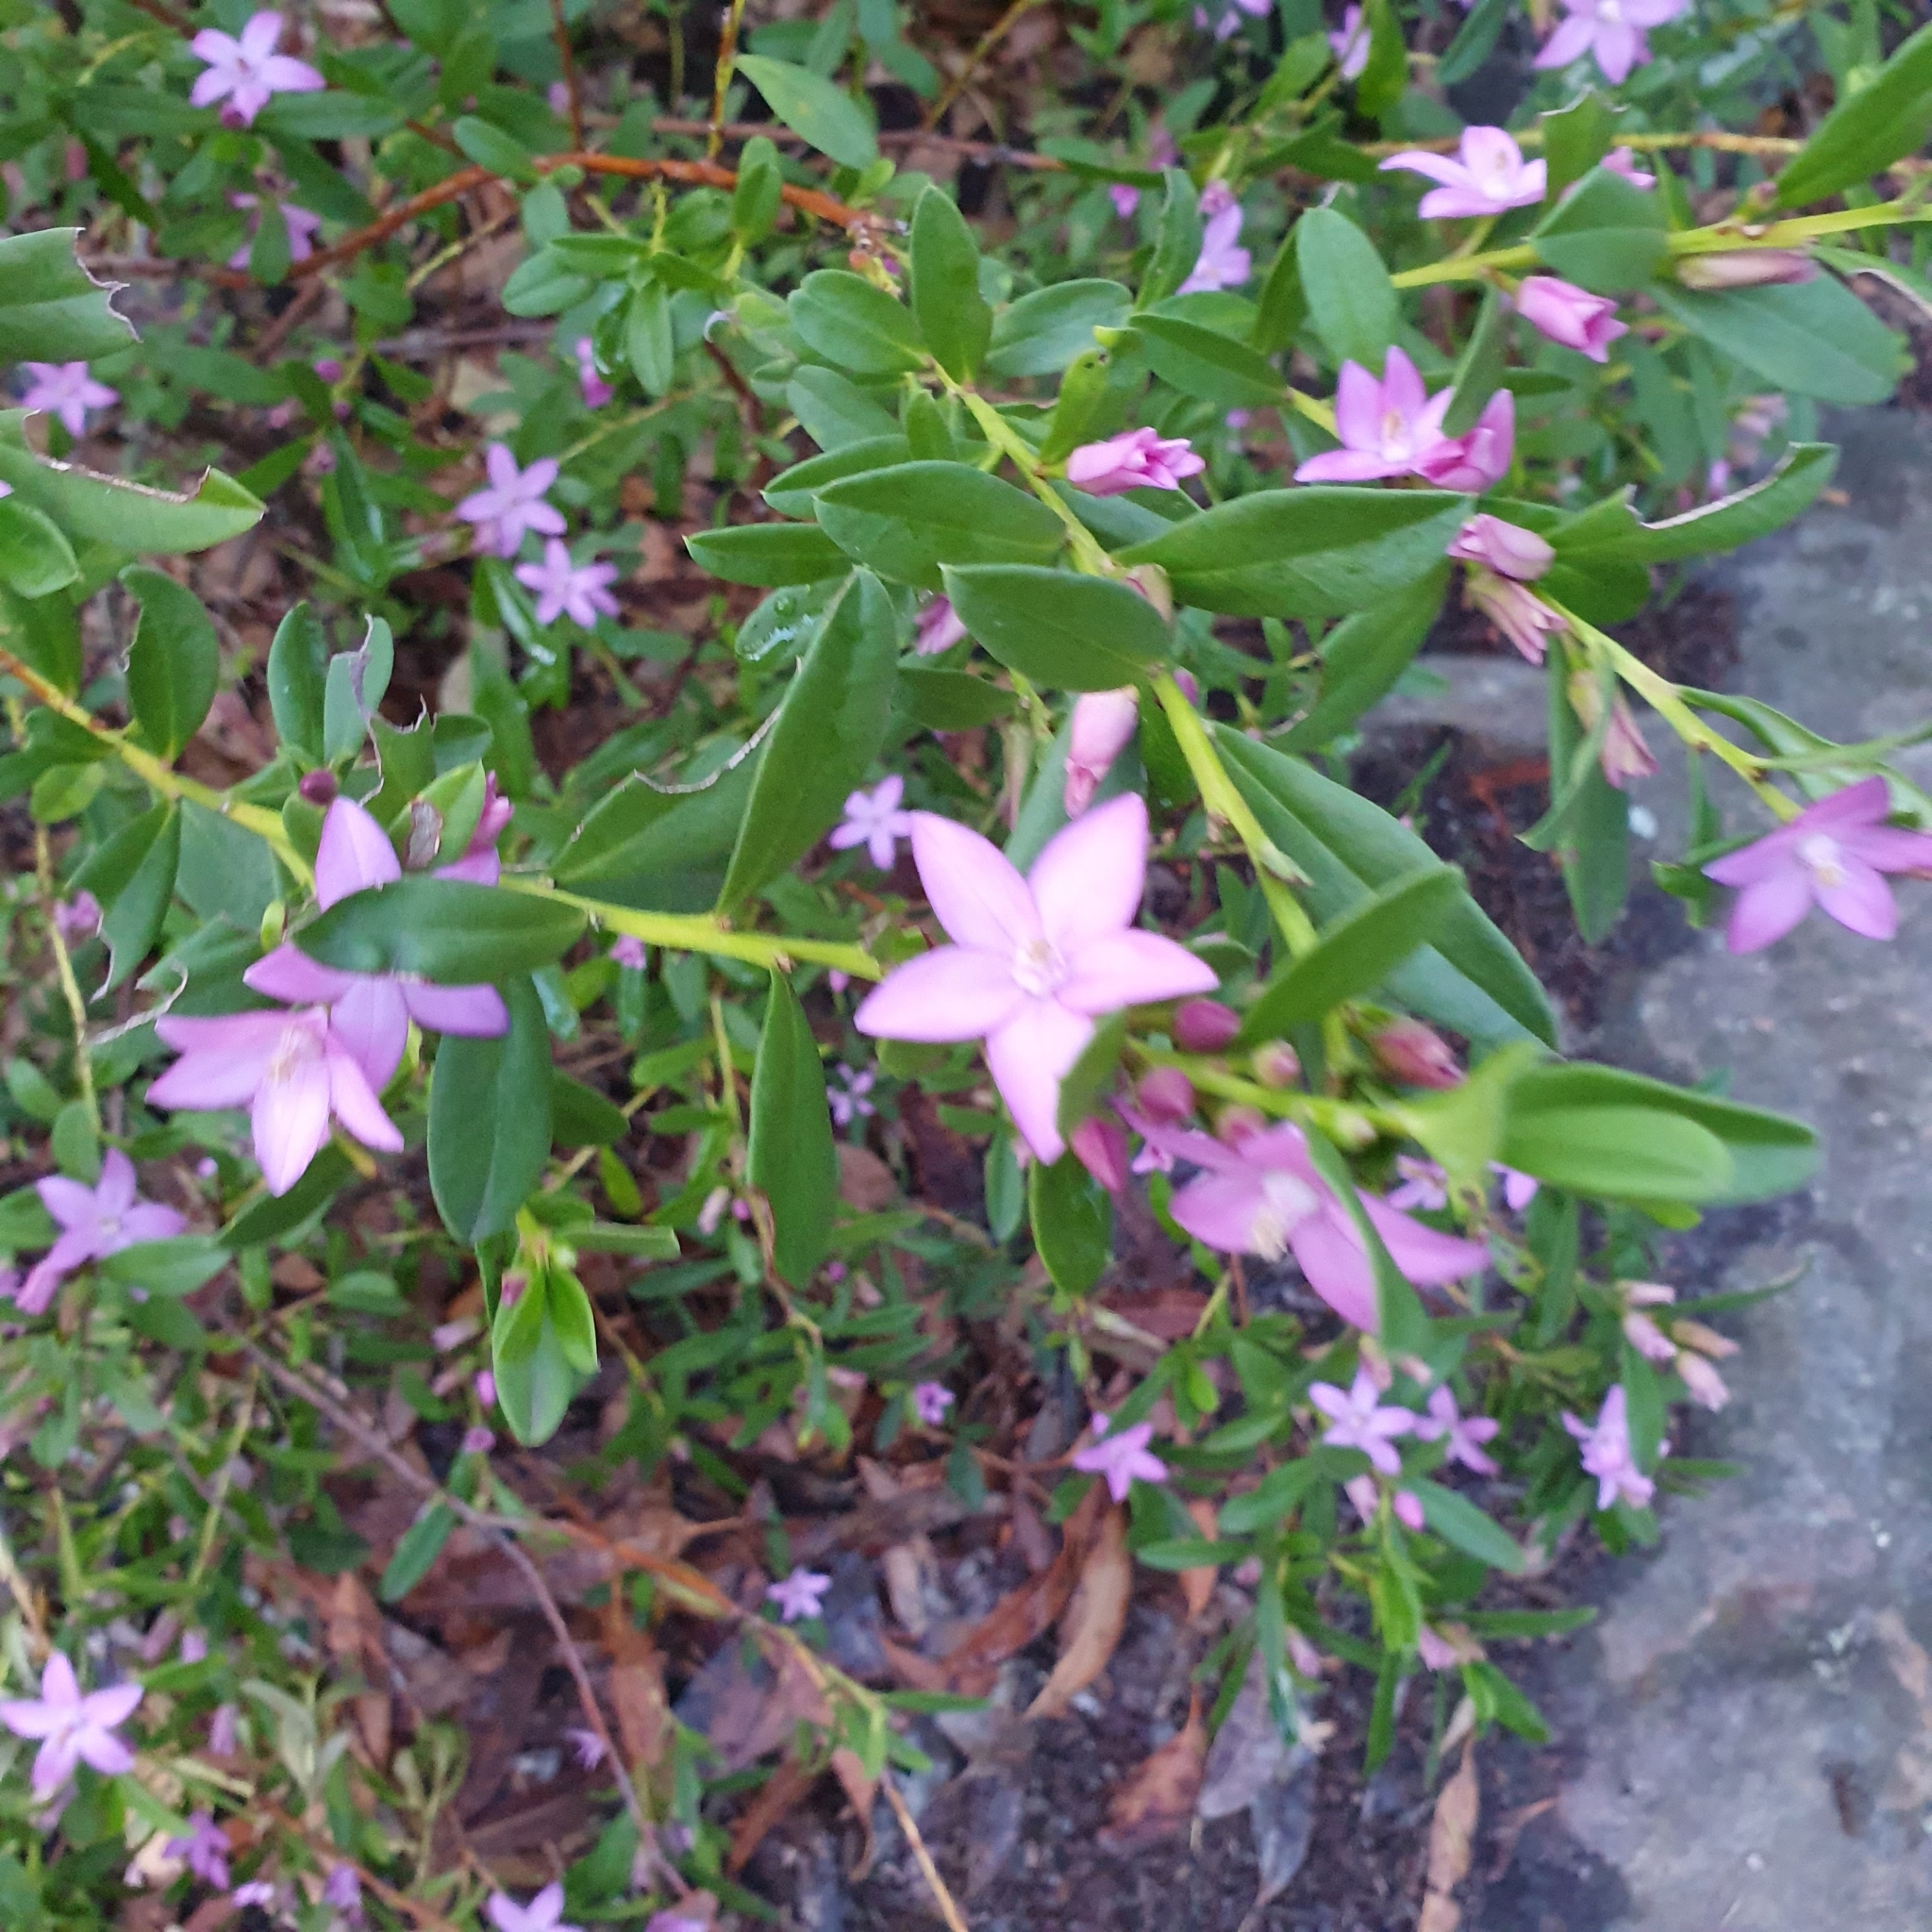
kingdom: Plantae
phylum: Tracheophyta
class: Magnoliopsida
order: Sapindales
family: Rutaceae
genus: Crowea
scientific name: Crowea saligna
